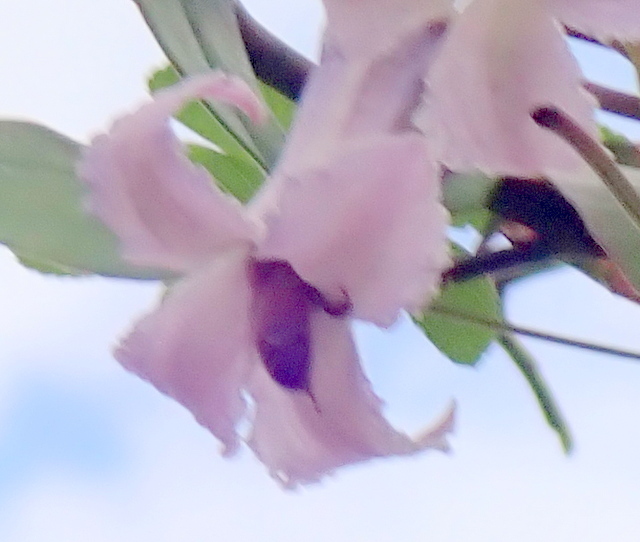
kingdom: Animalia
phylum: Arthropoda
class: Insecta
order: Hymenoptera
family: Apidae
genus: Apis
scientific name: Apis mellifera
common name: Honey bee
